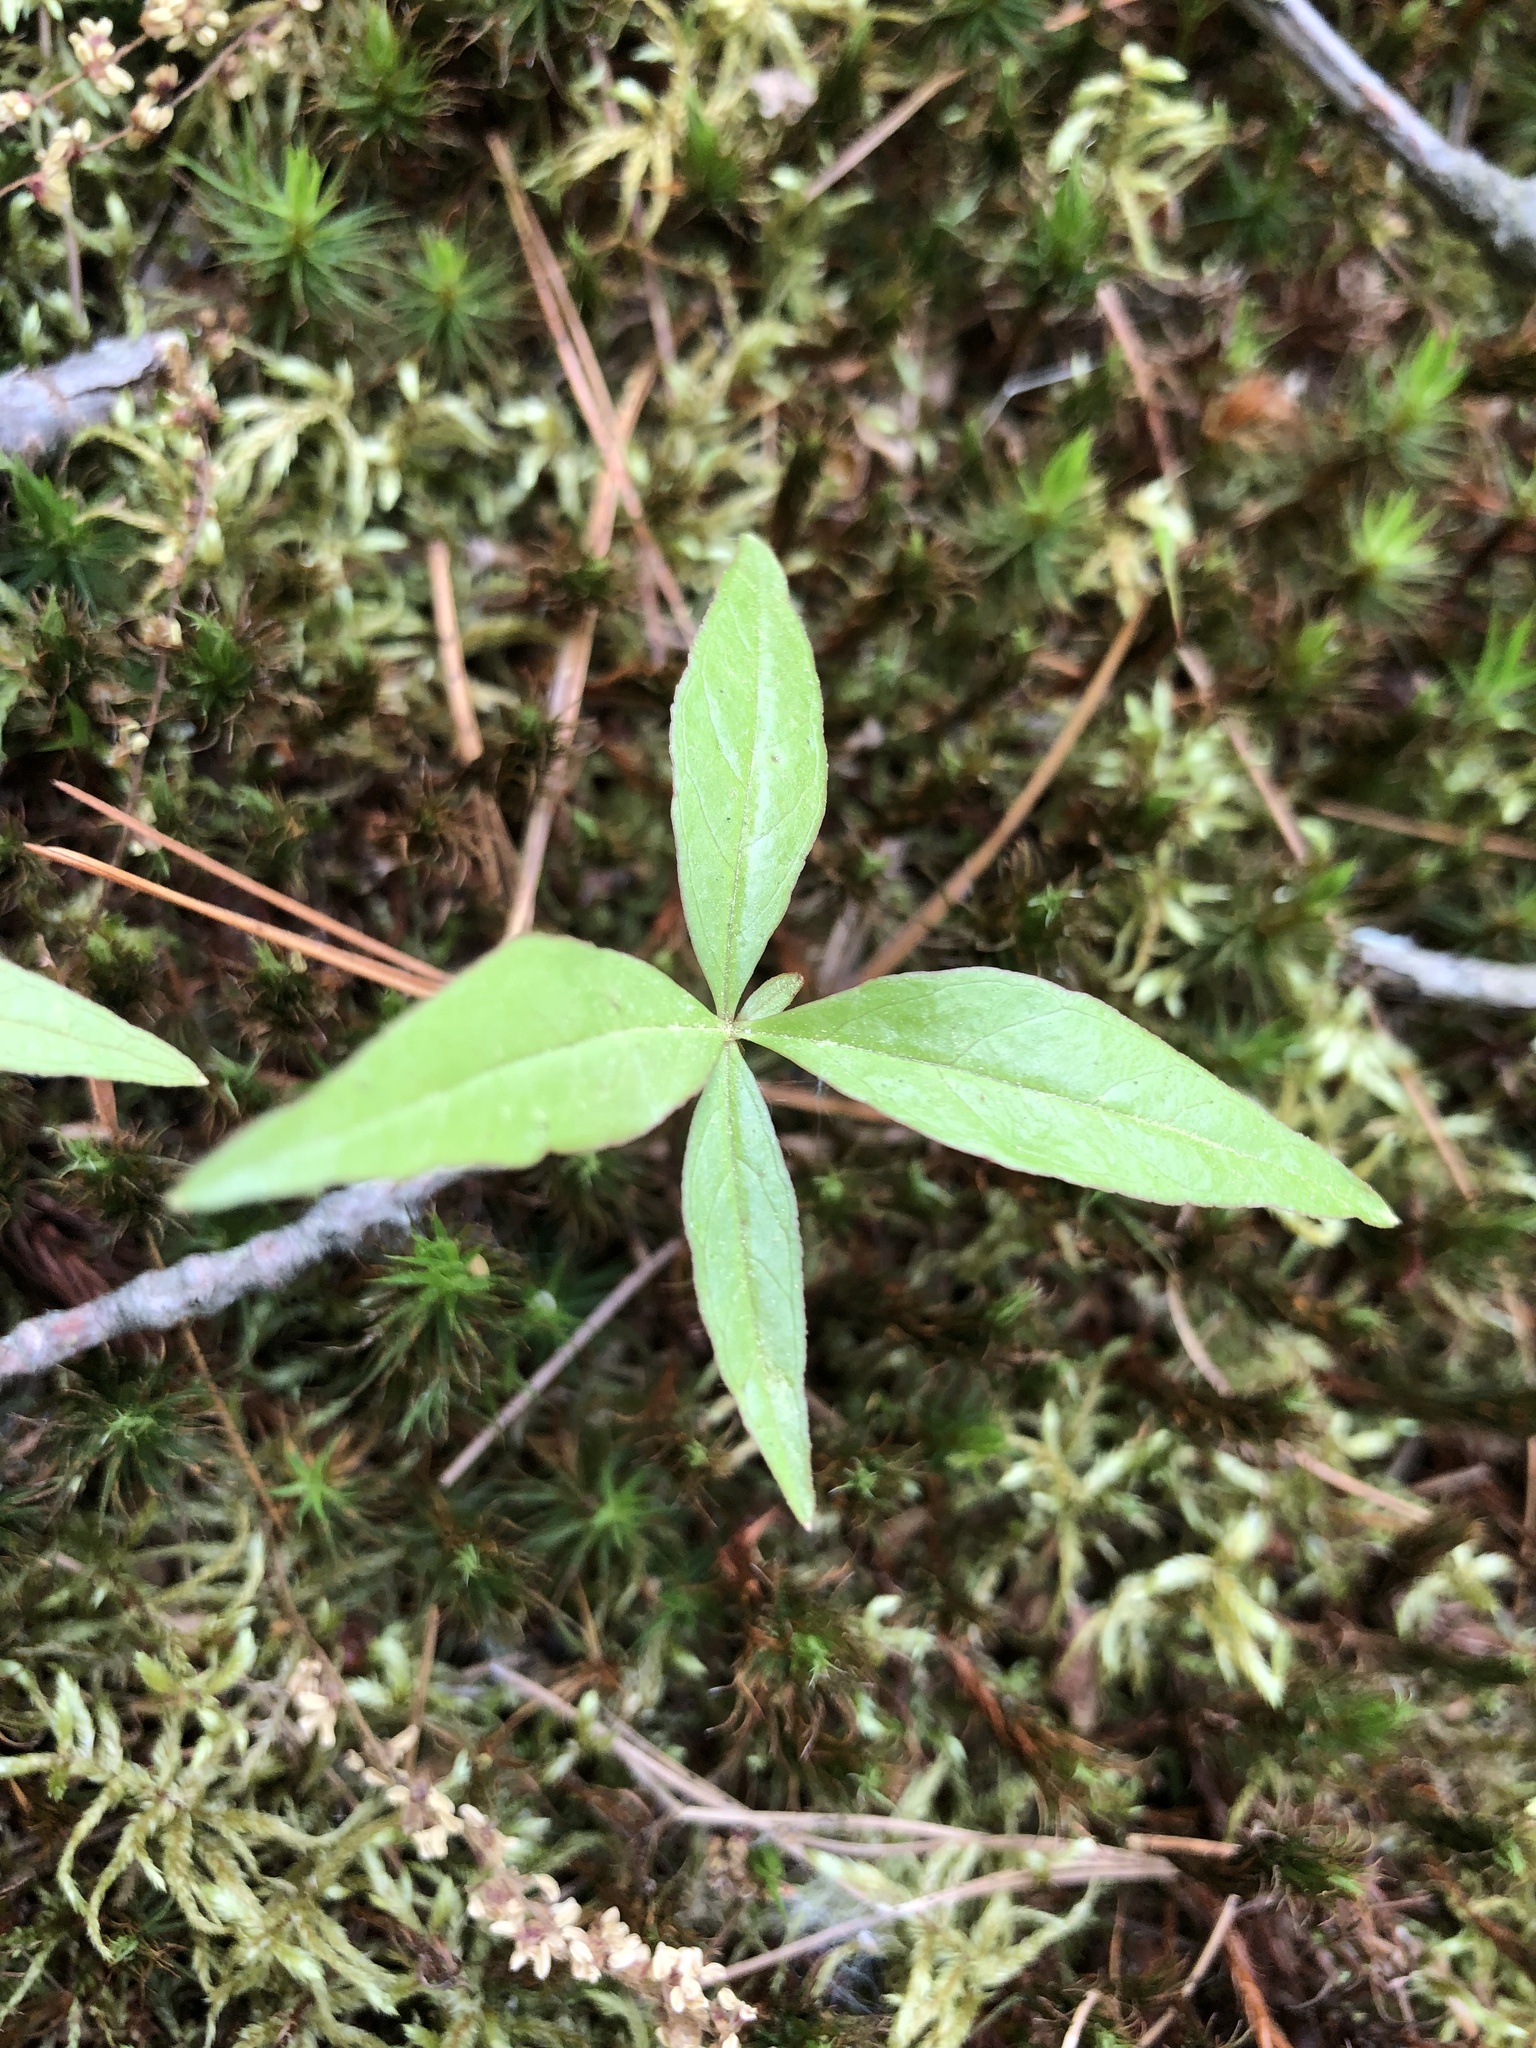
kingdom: Plantae
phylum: Tracheophyta
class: Magnoliopsida
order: Ericales
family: Primulaceae
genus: Lysimachia
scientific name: Lysimachia borealis
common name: American starflower
